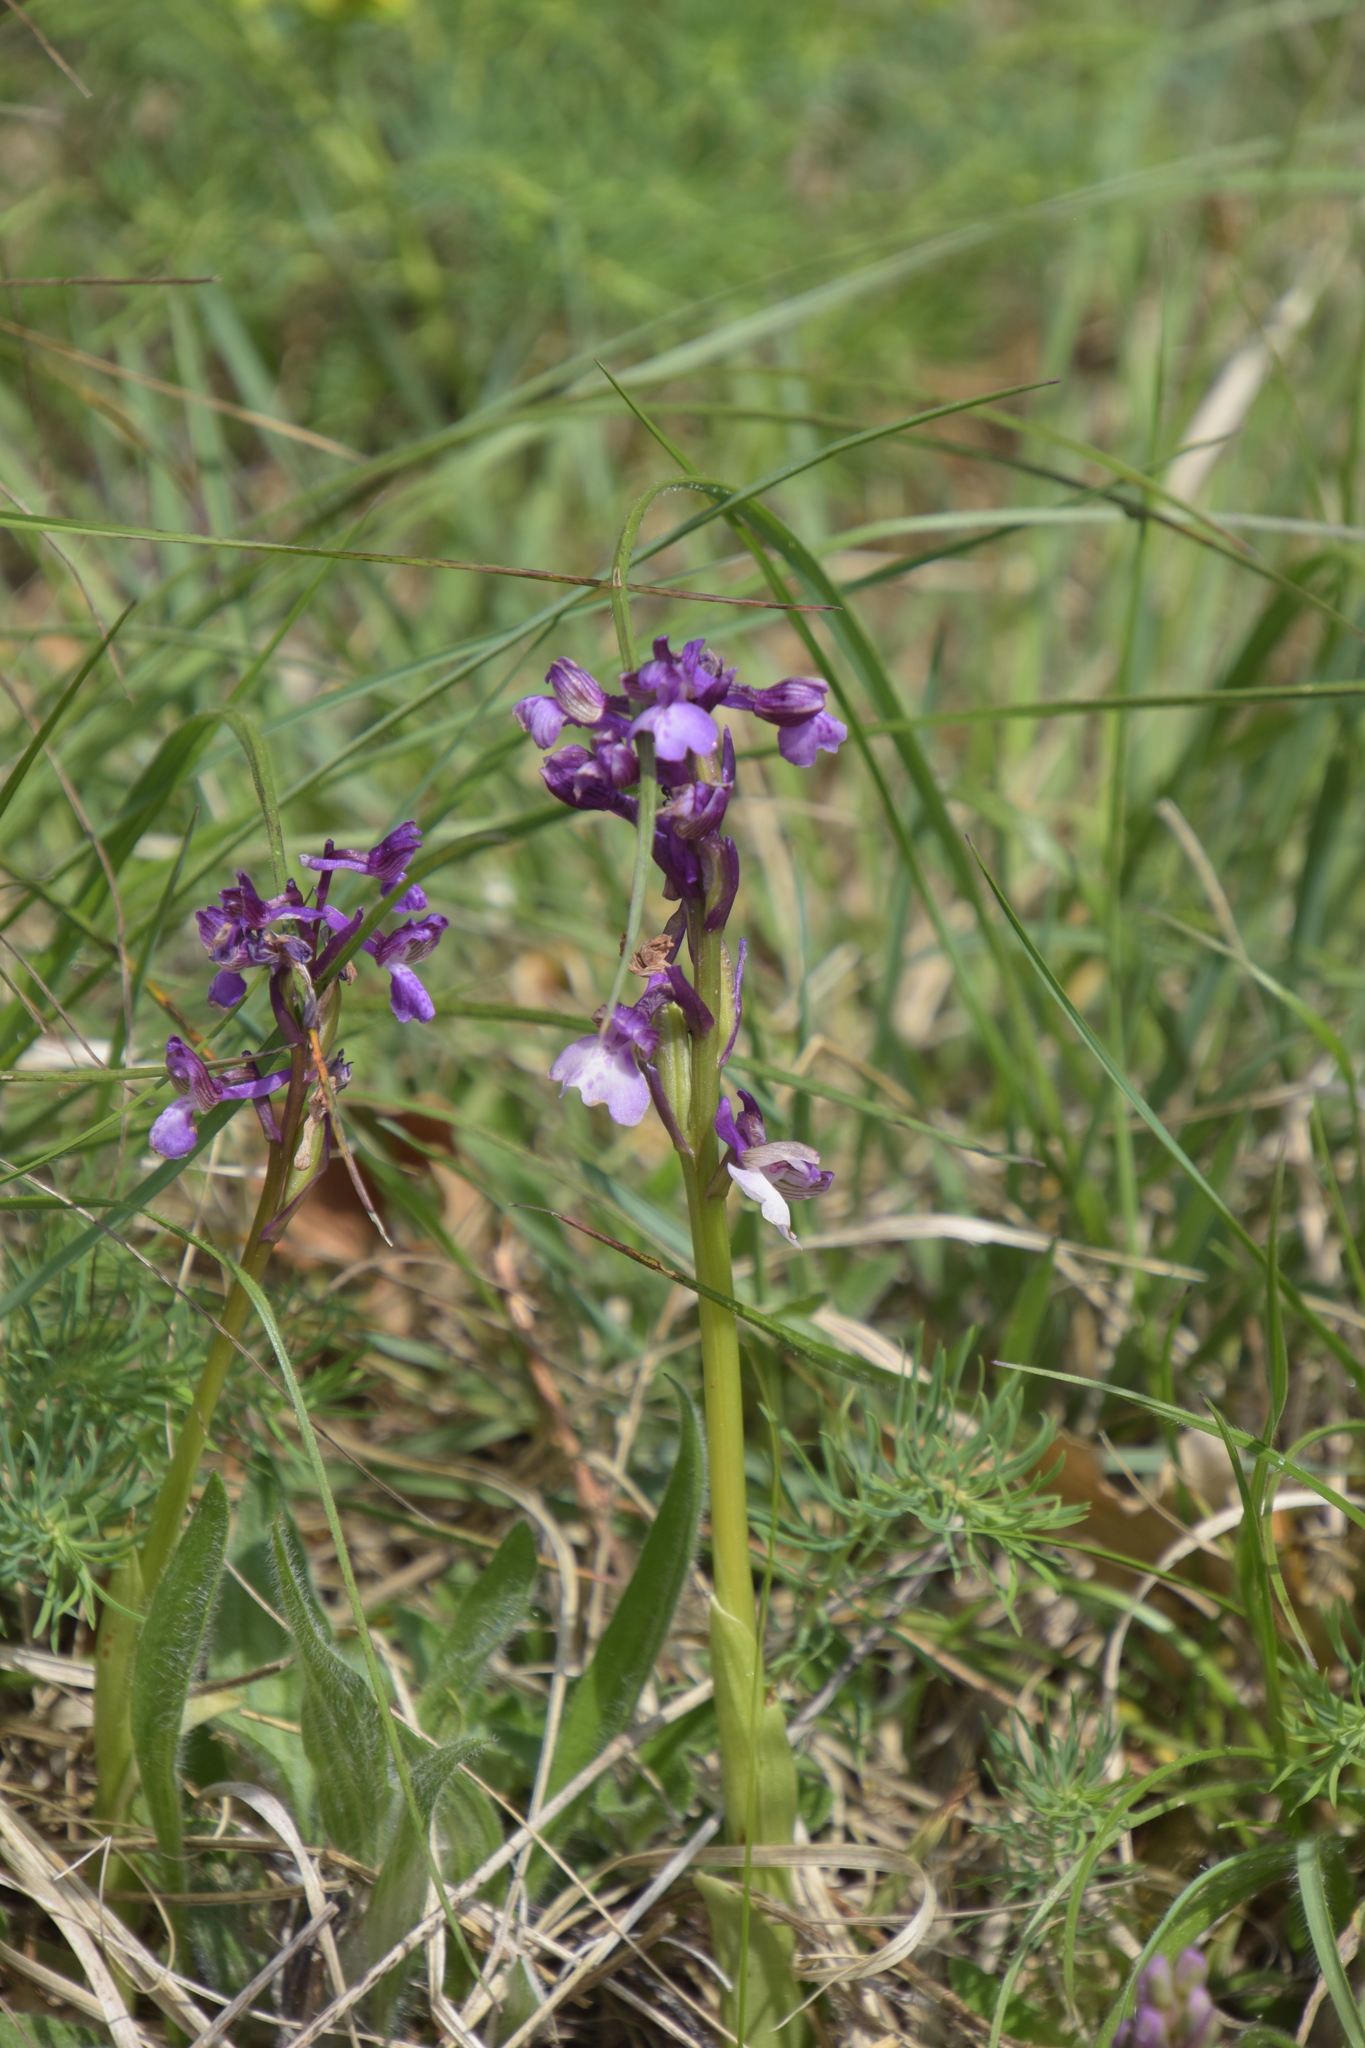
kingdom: Plantae
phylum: Tracheophyta
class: Liliopsida
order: Asparagales
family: Orchidaceae
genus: Anacamptis
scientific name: Anacamptis morio
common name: Green-winged orchid
